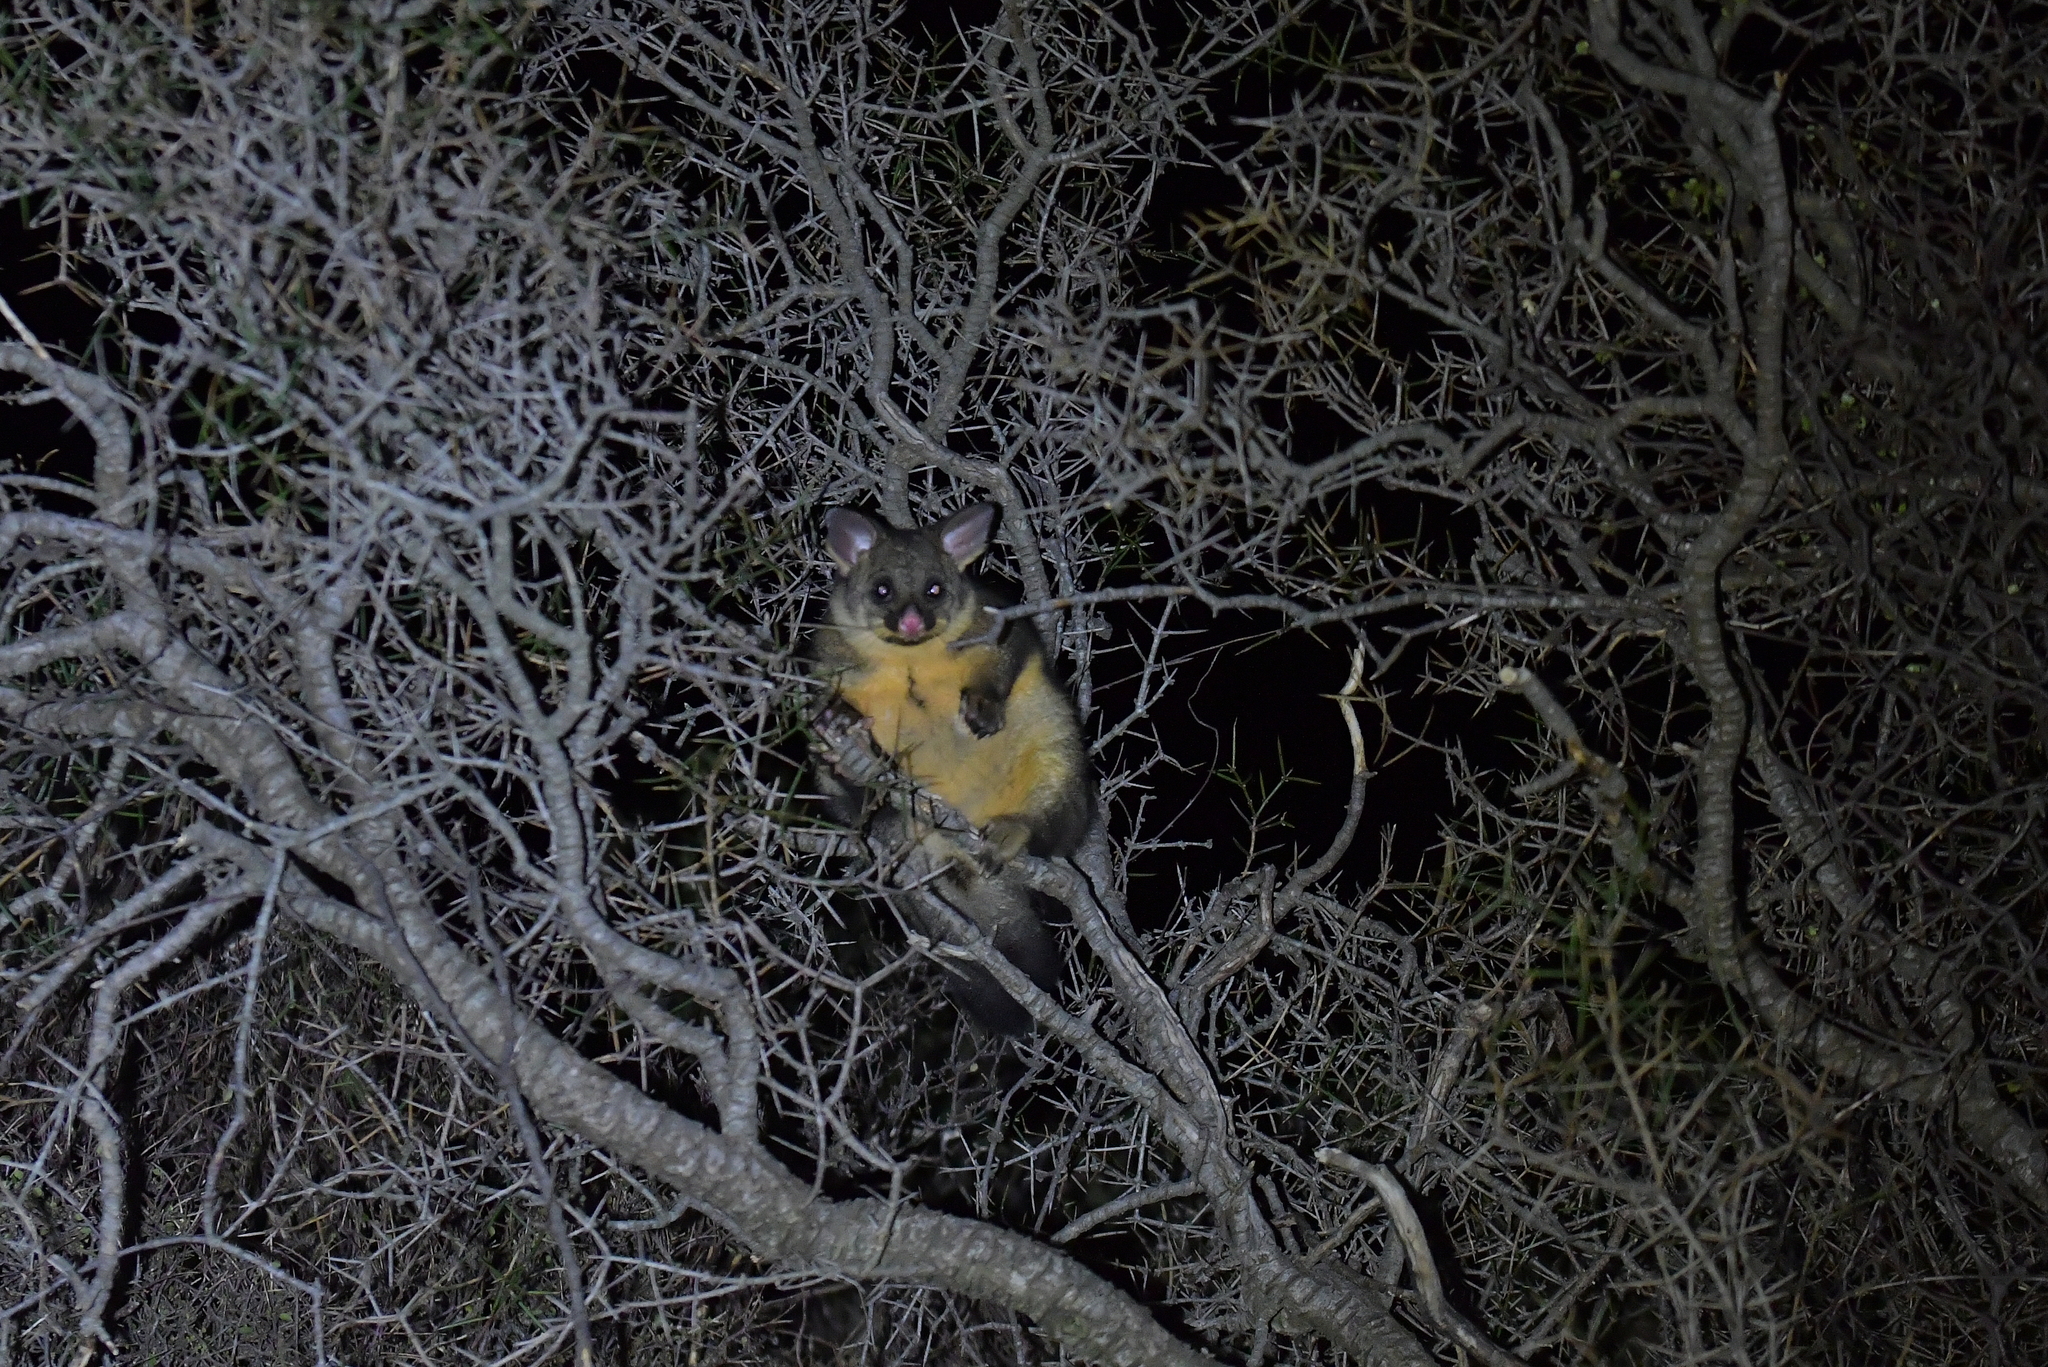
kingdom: Animalia
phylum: Chordata
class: Mammalia
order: Diprotodontia
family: Phalangeridae
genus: Trichosurus
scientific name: Trichosurus vulpecula
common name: Common brushtail
